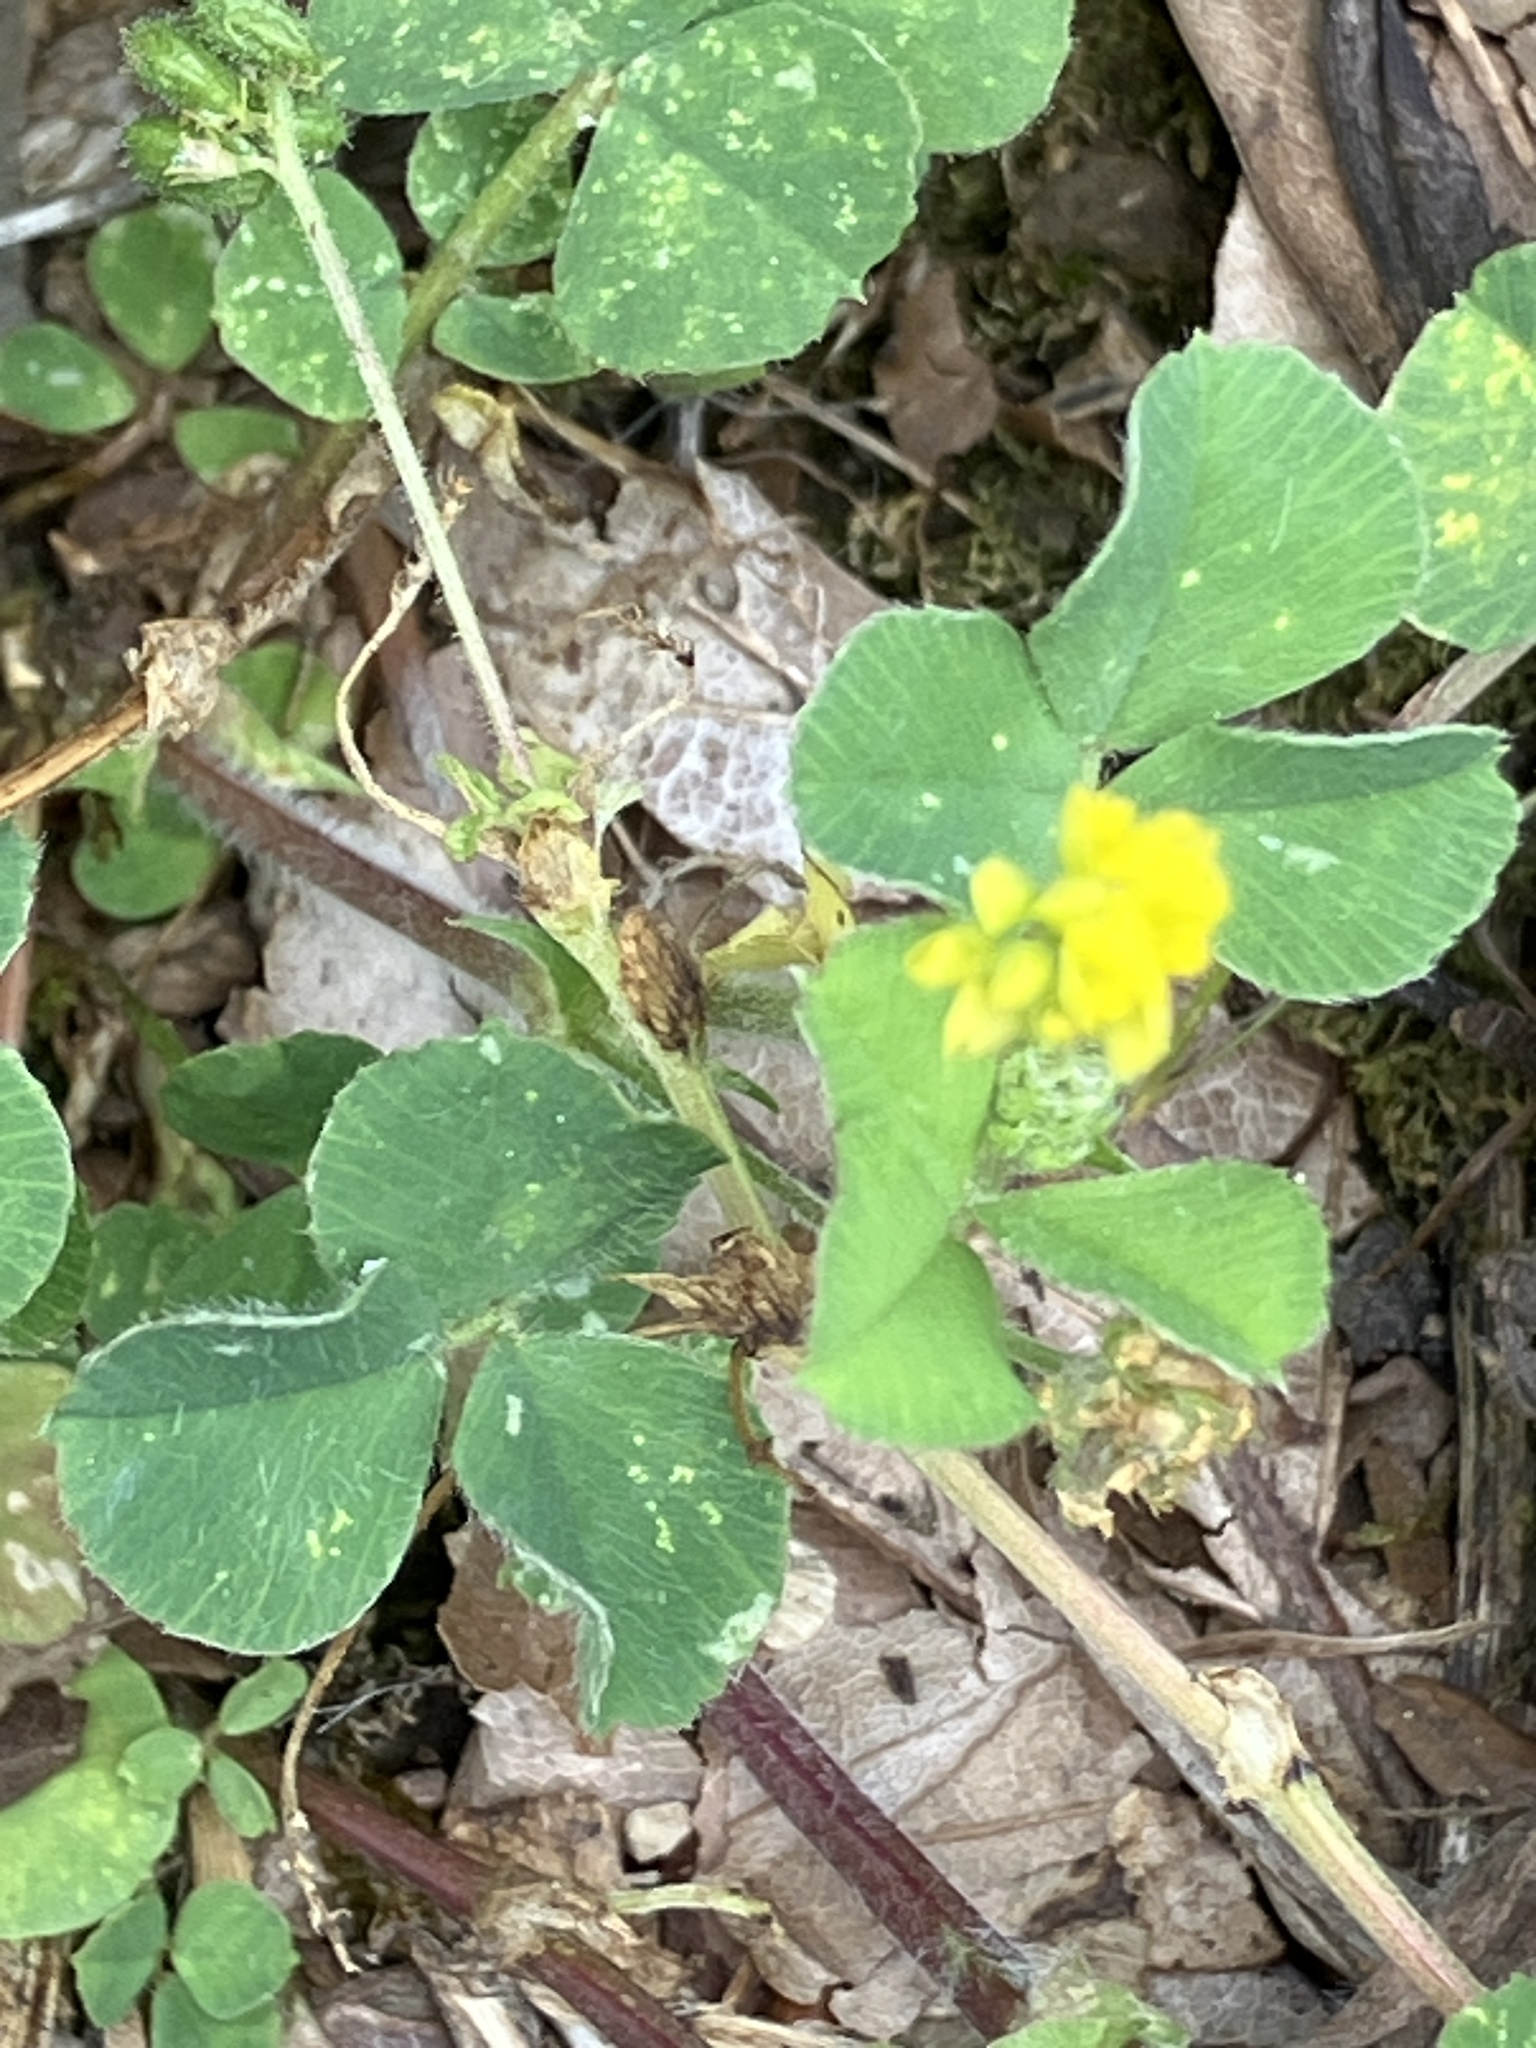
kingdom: Plantae
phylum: Tracheophyta
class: Magnoliopsida
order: Fabales
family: Fabaceae
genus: Medicago
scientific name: Medicago lupulina
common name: Black medick
